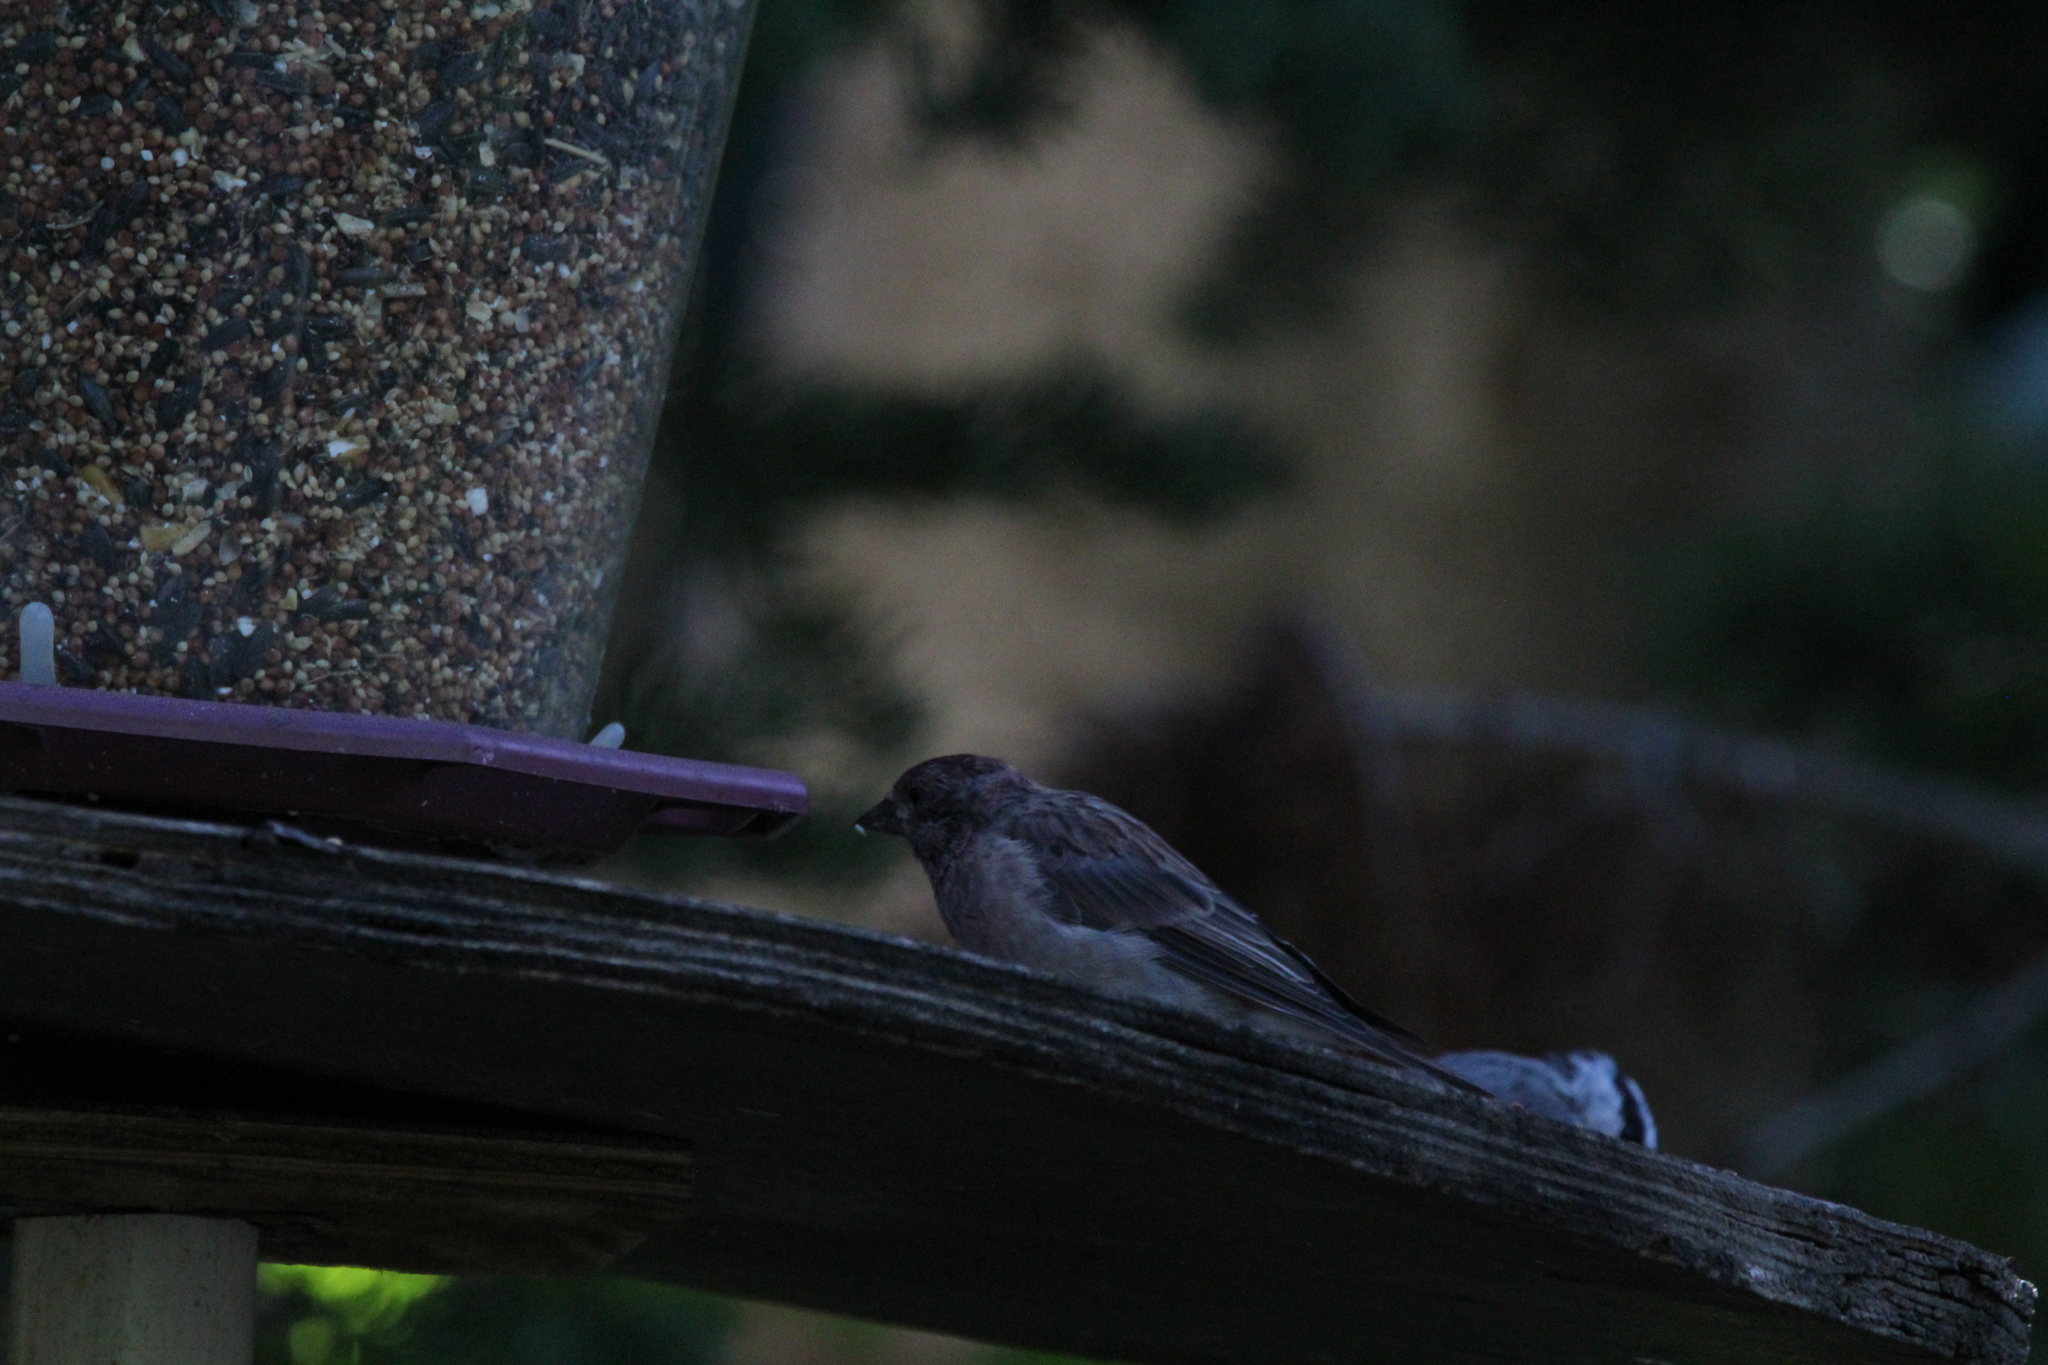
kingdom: Animalia
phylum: Chordata
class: Aves
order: Passeriformes
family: Fringillidae
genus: Haemorhous
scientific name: Haemorhous cassinii
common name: Cassin's finch
